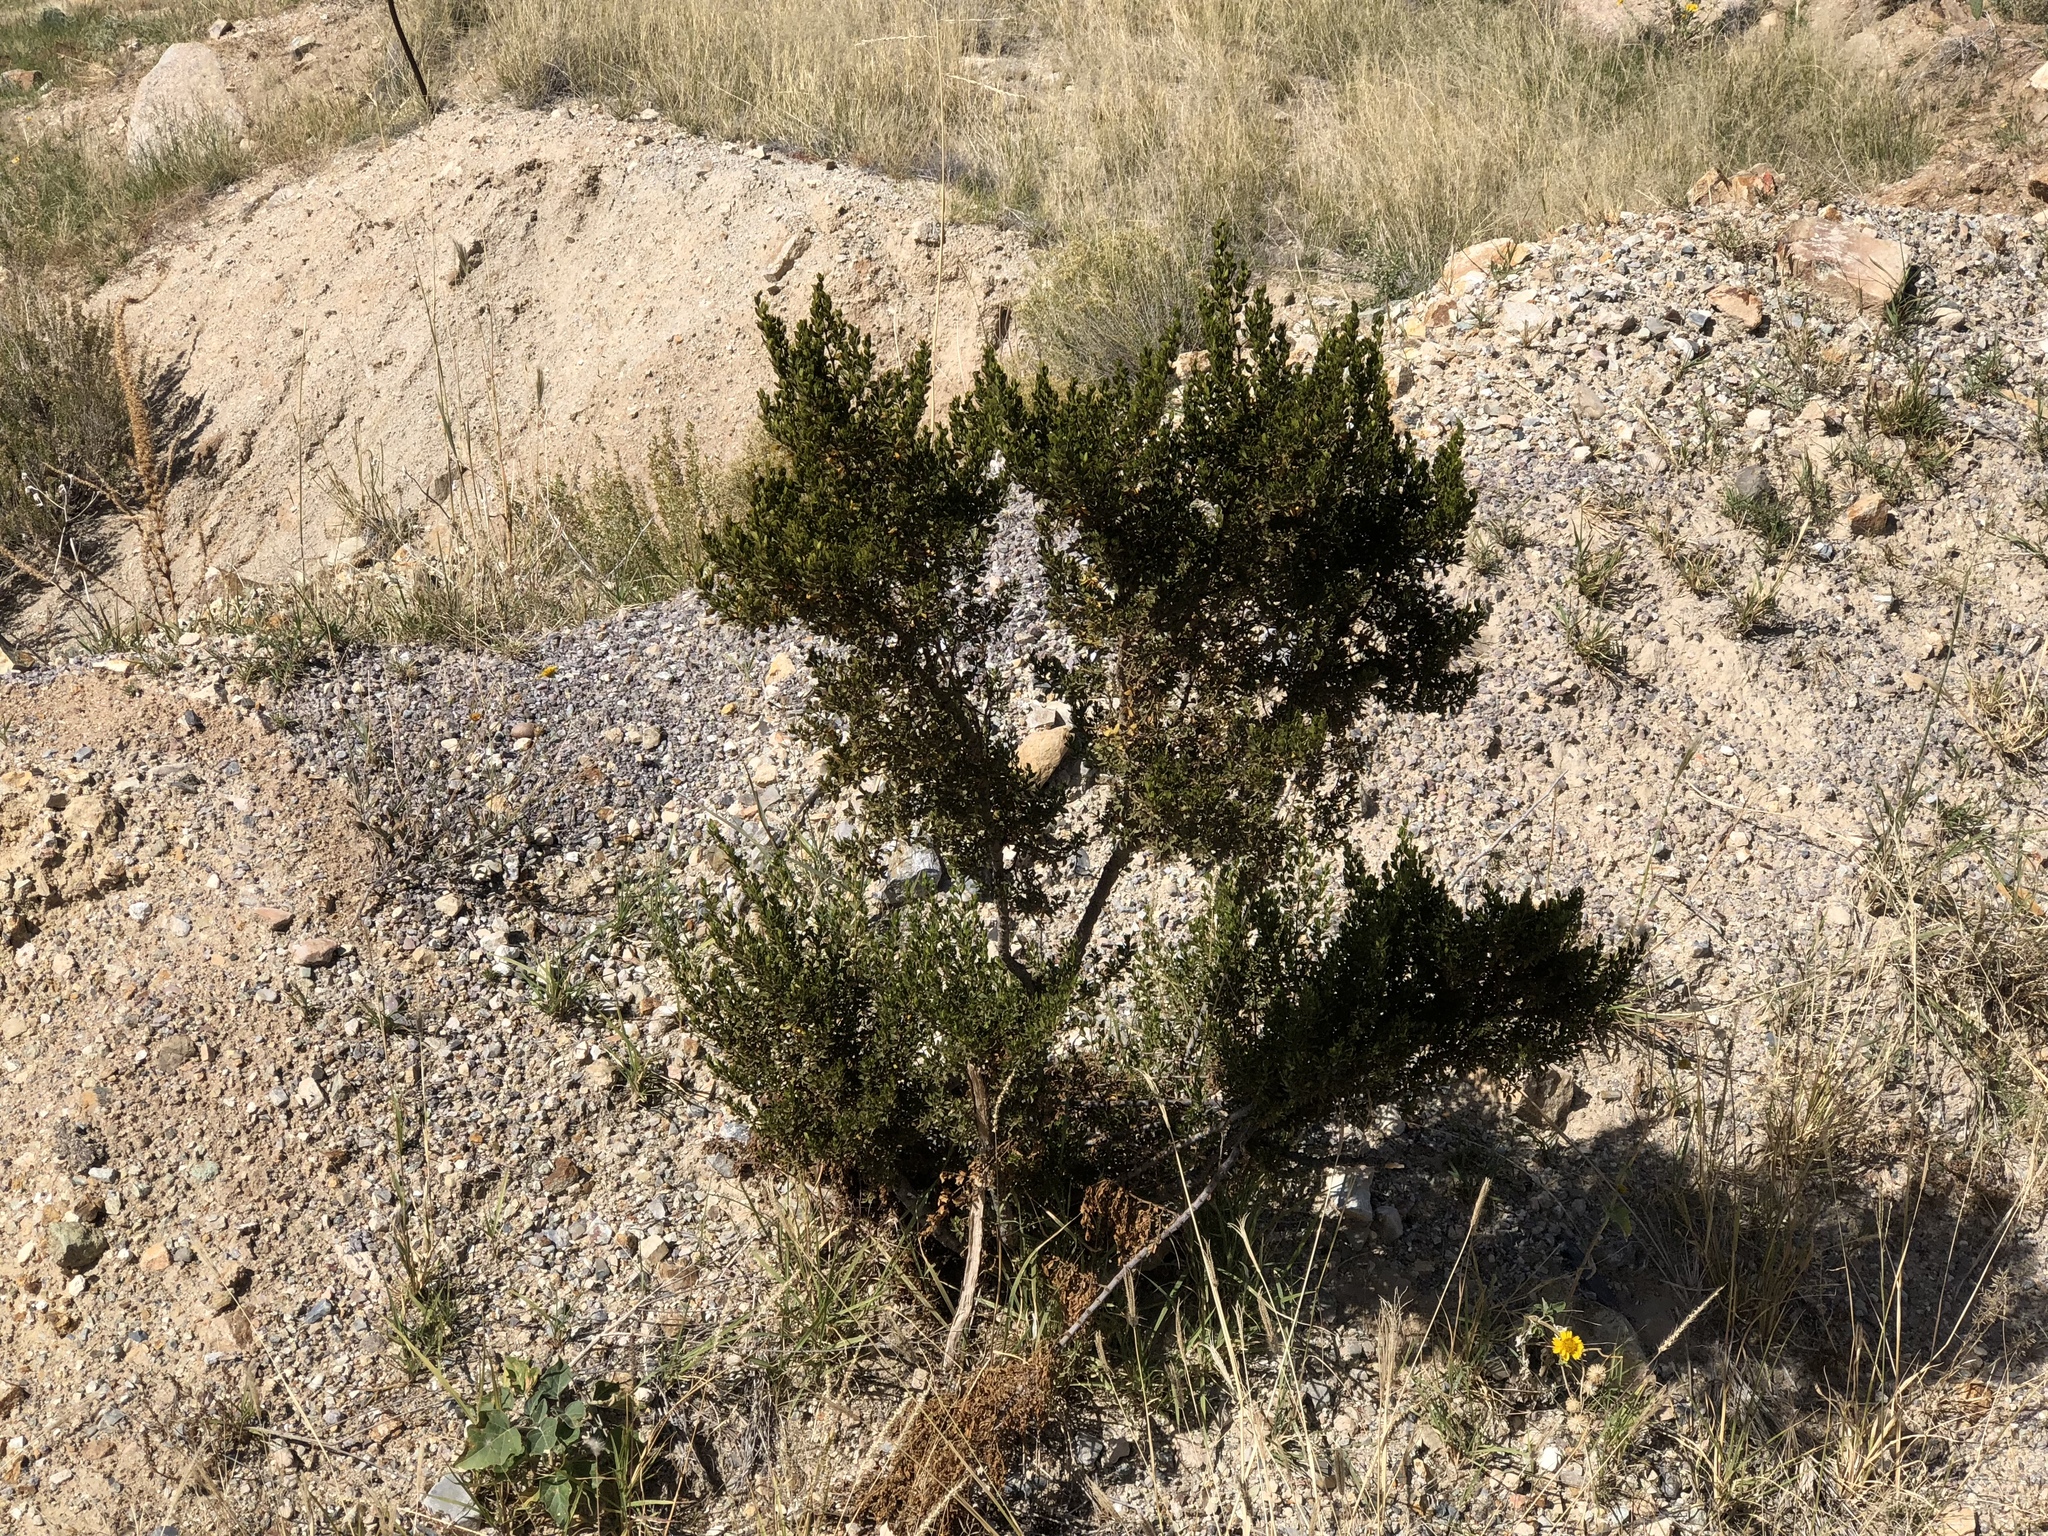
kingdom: Plantae
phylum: Tracheophyta
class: Magnoliopsida
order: Zygophyllales
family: Zygophyllaceae
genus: Larrea
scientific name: Larrea tridentata
